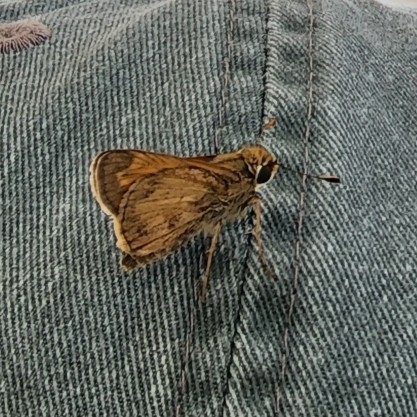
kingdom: Animalia
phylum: Arthropoda
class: Insecta
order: Lepidoptera
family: Hesperiidae
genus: Atalopedes
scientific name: Atalopedes
